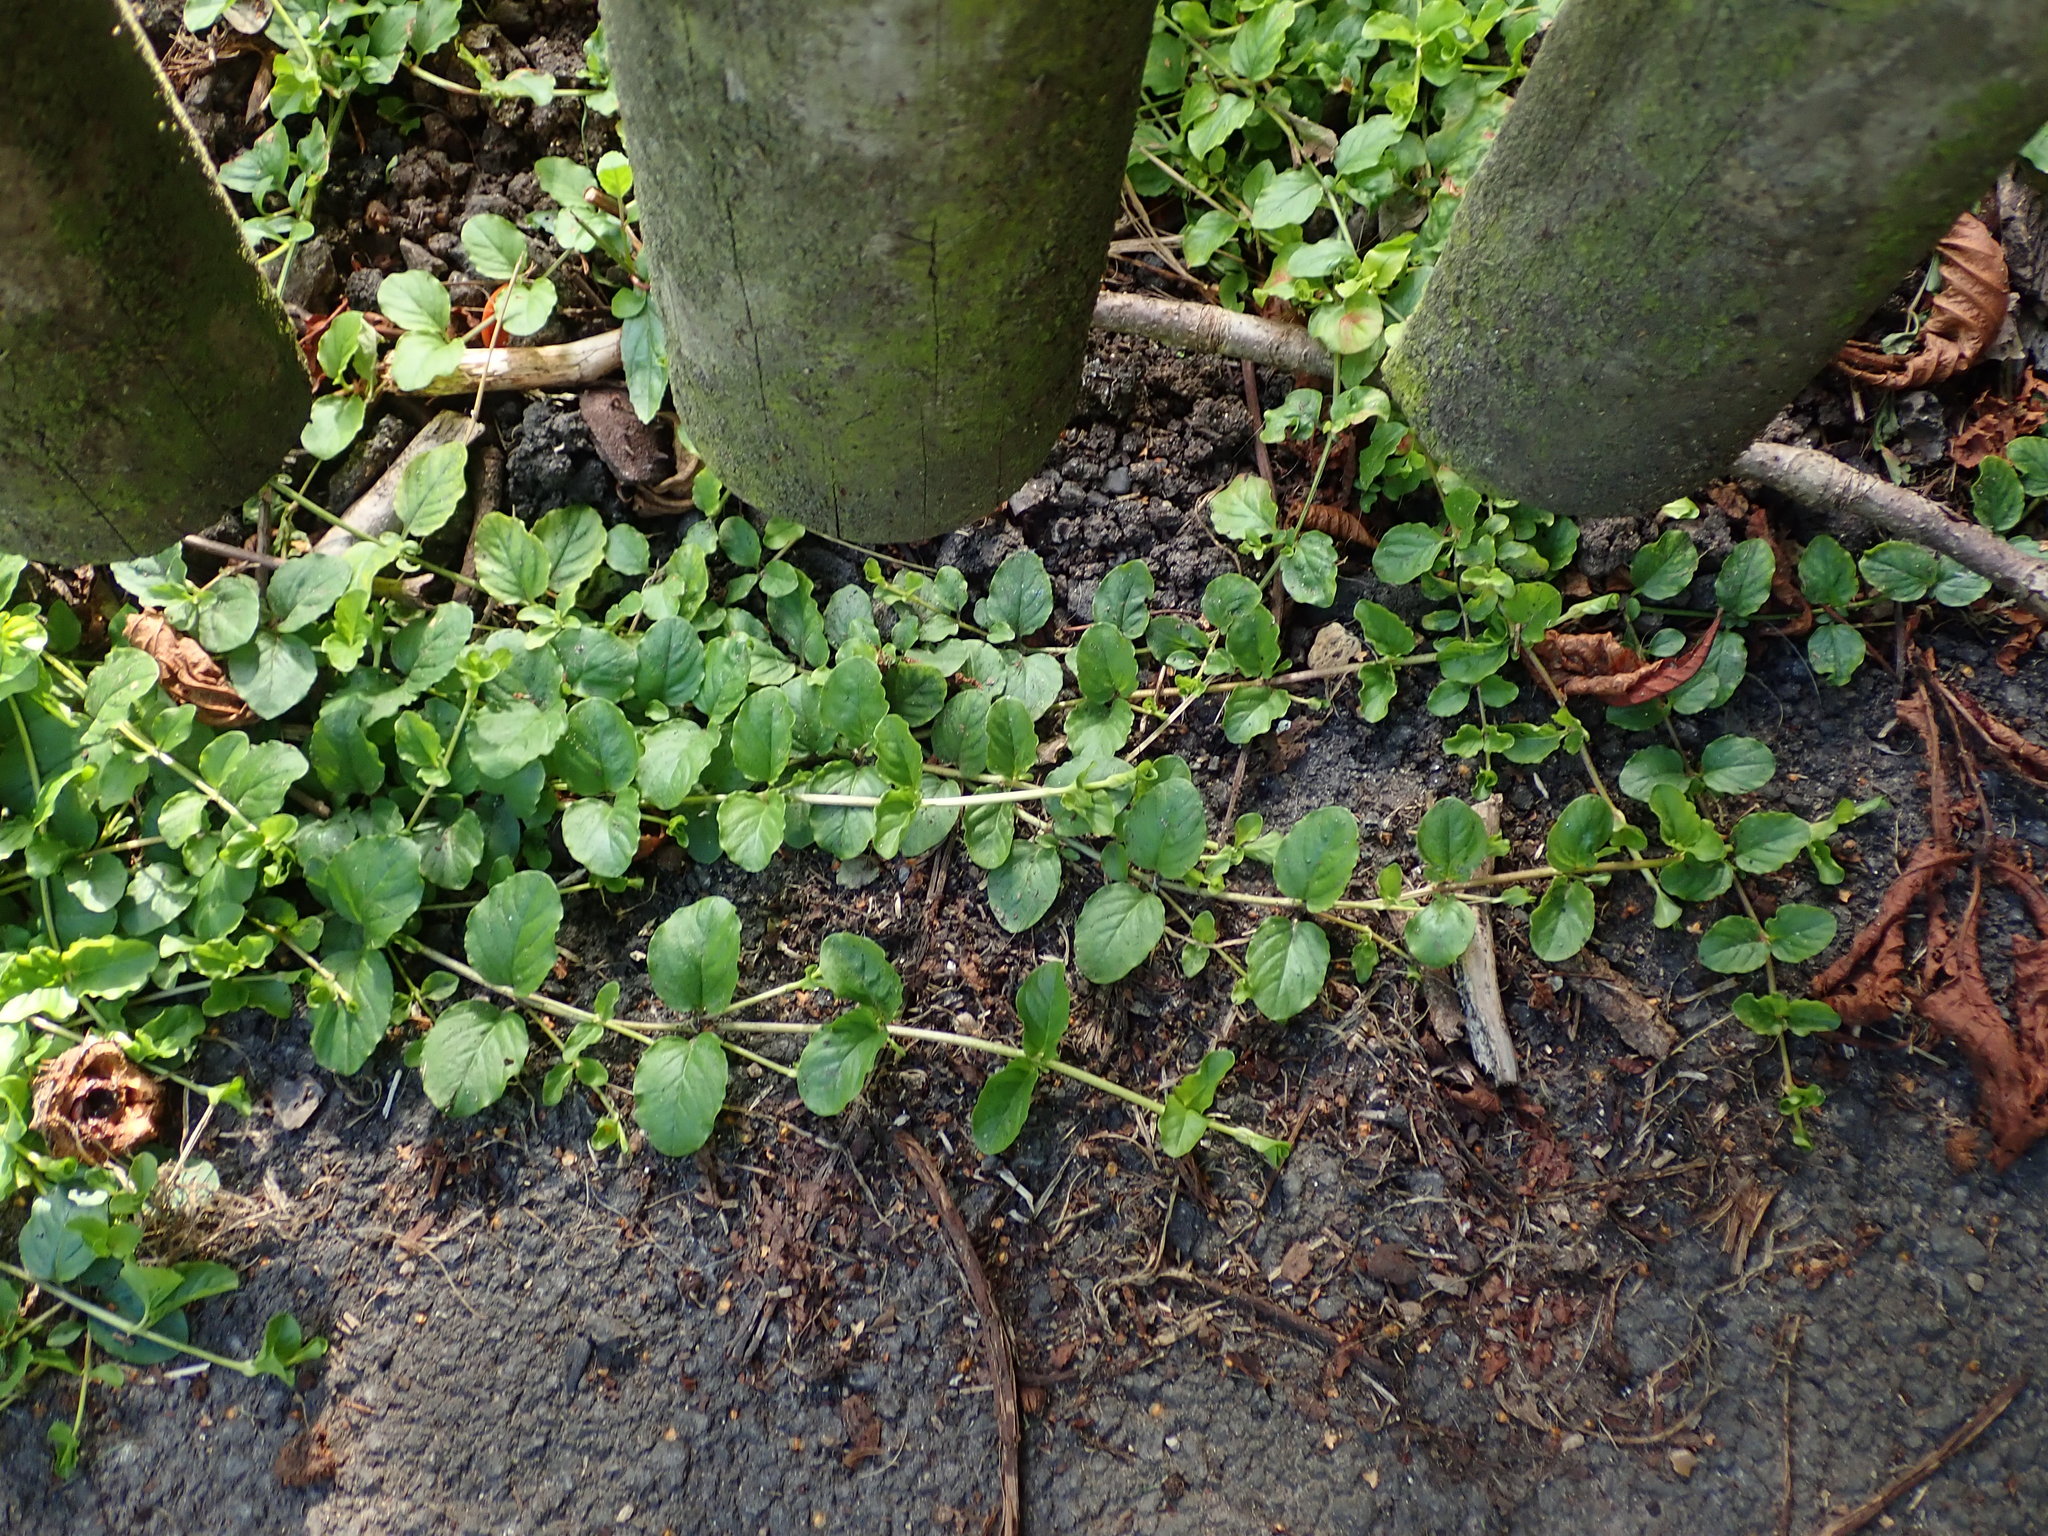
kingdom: Plantae
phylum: Tracheophyta
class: Magnoliopsida
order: Ericales
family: Primulaceae
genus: Lysimachia
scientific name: Lysimachia nummularia
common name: Moneywort
